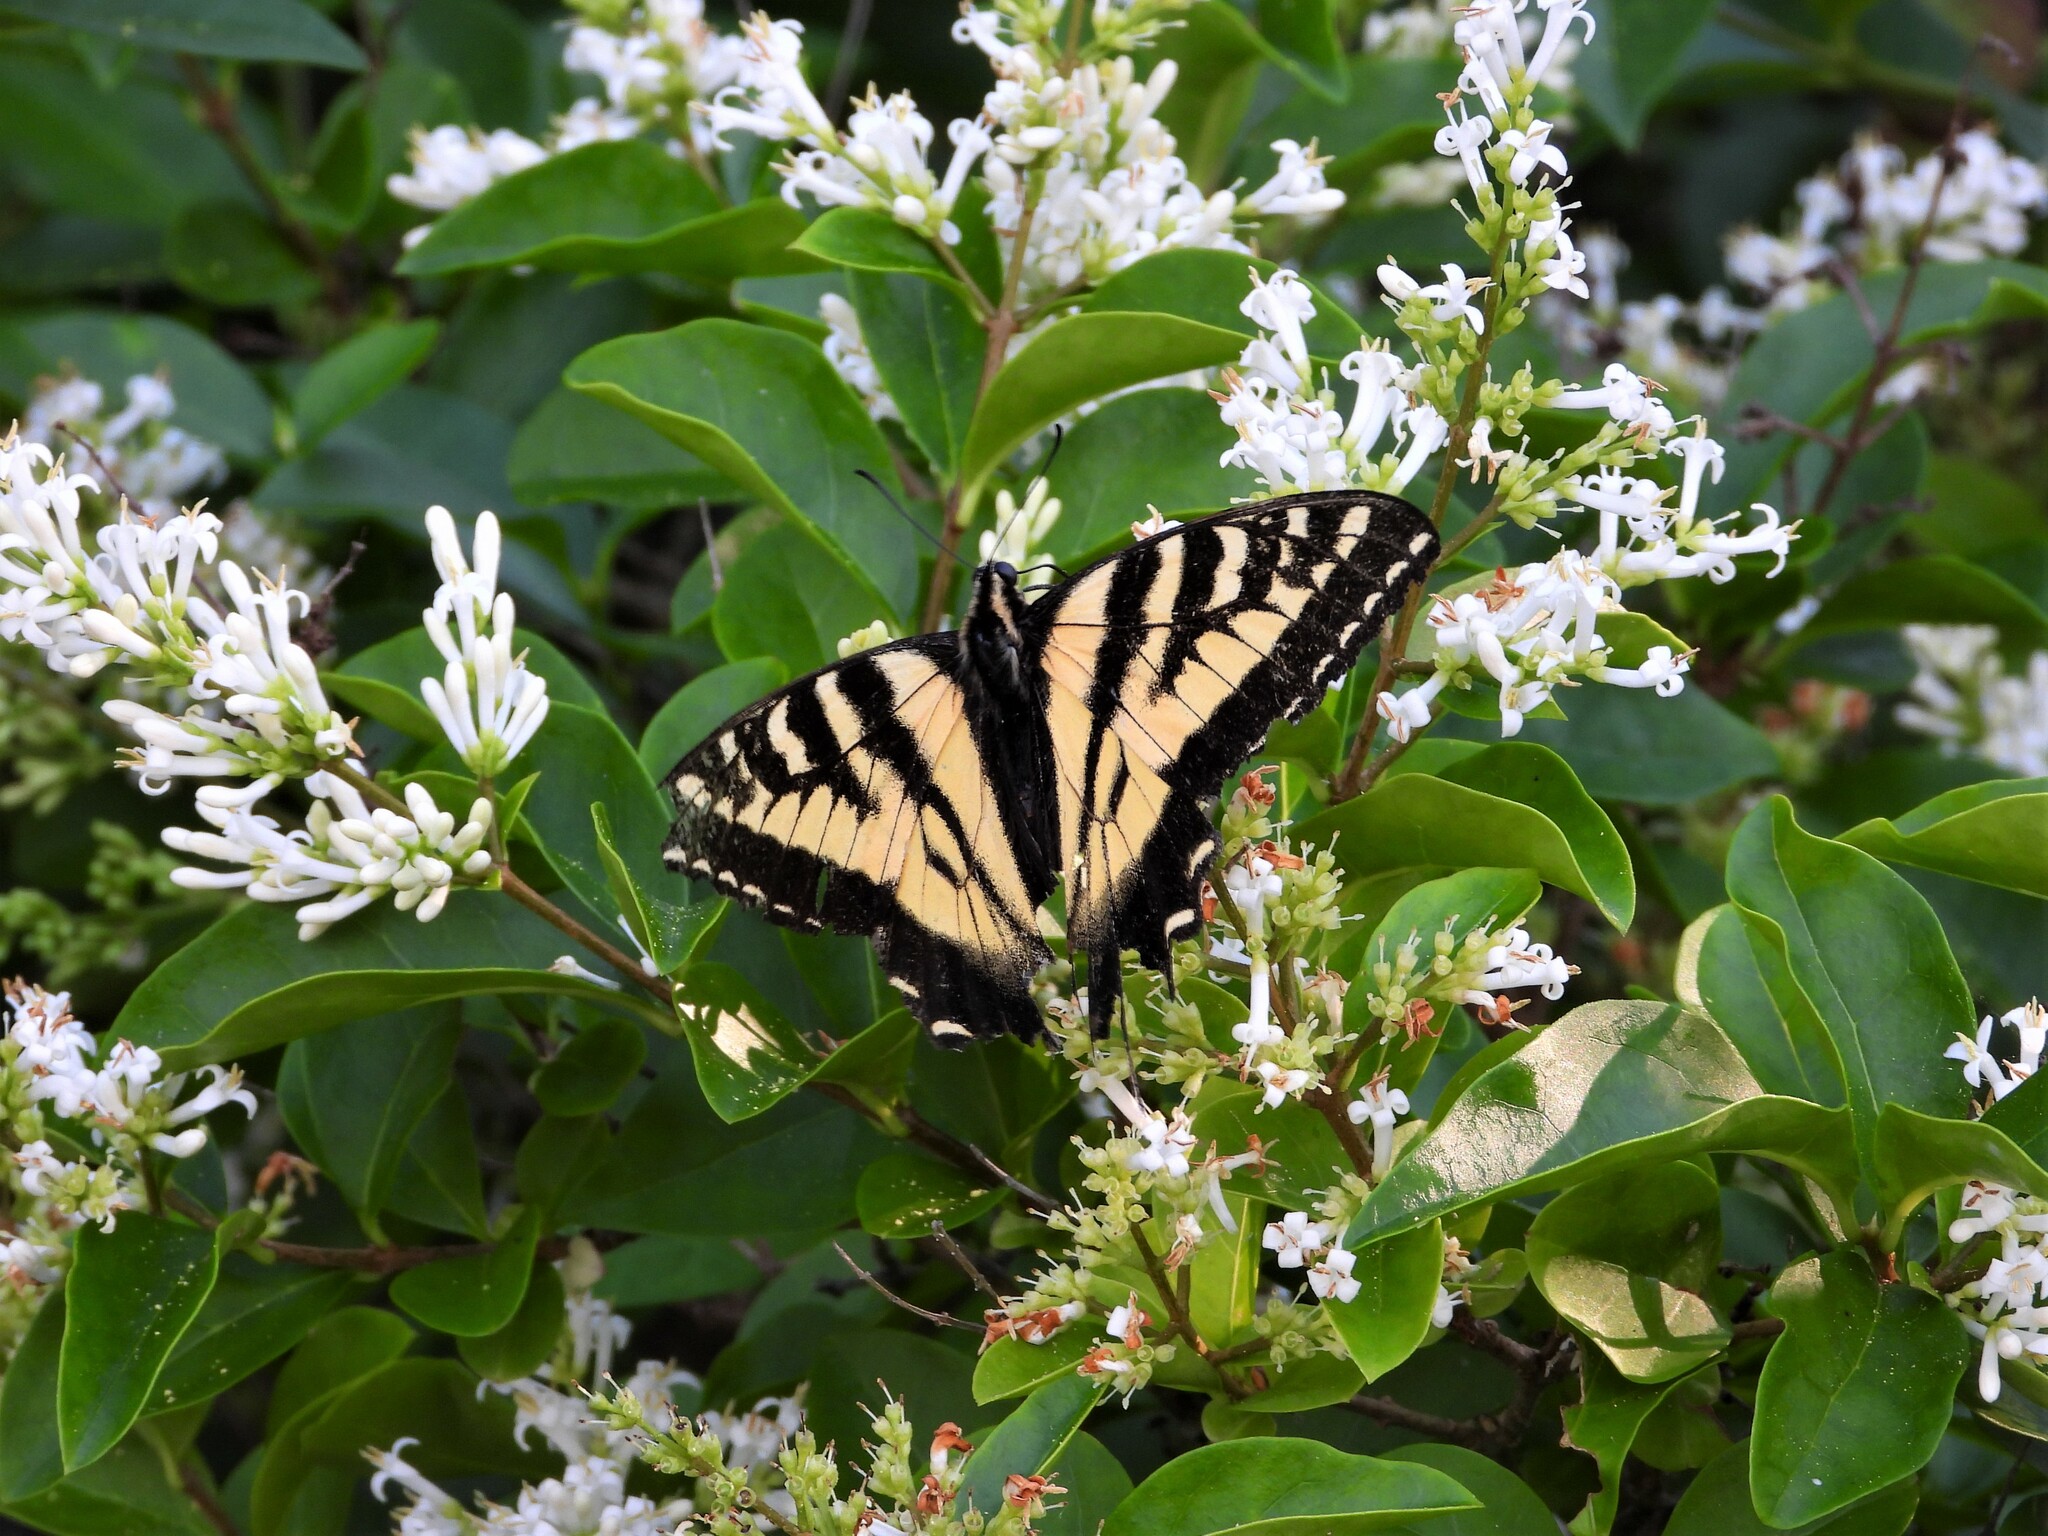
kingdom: Animalia
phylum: Arthropoda
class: Insecta
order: Lepidoptera
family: Papilionidae
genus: Papilio
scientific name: Papilio rutulus
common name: Western tiger swallowtail
